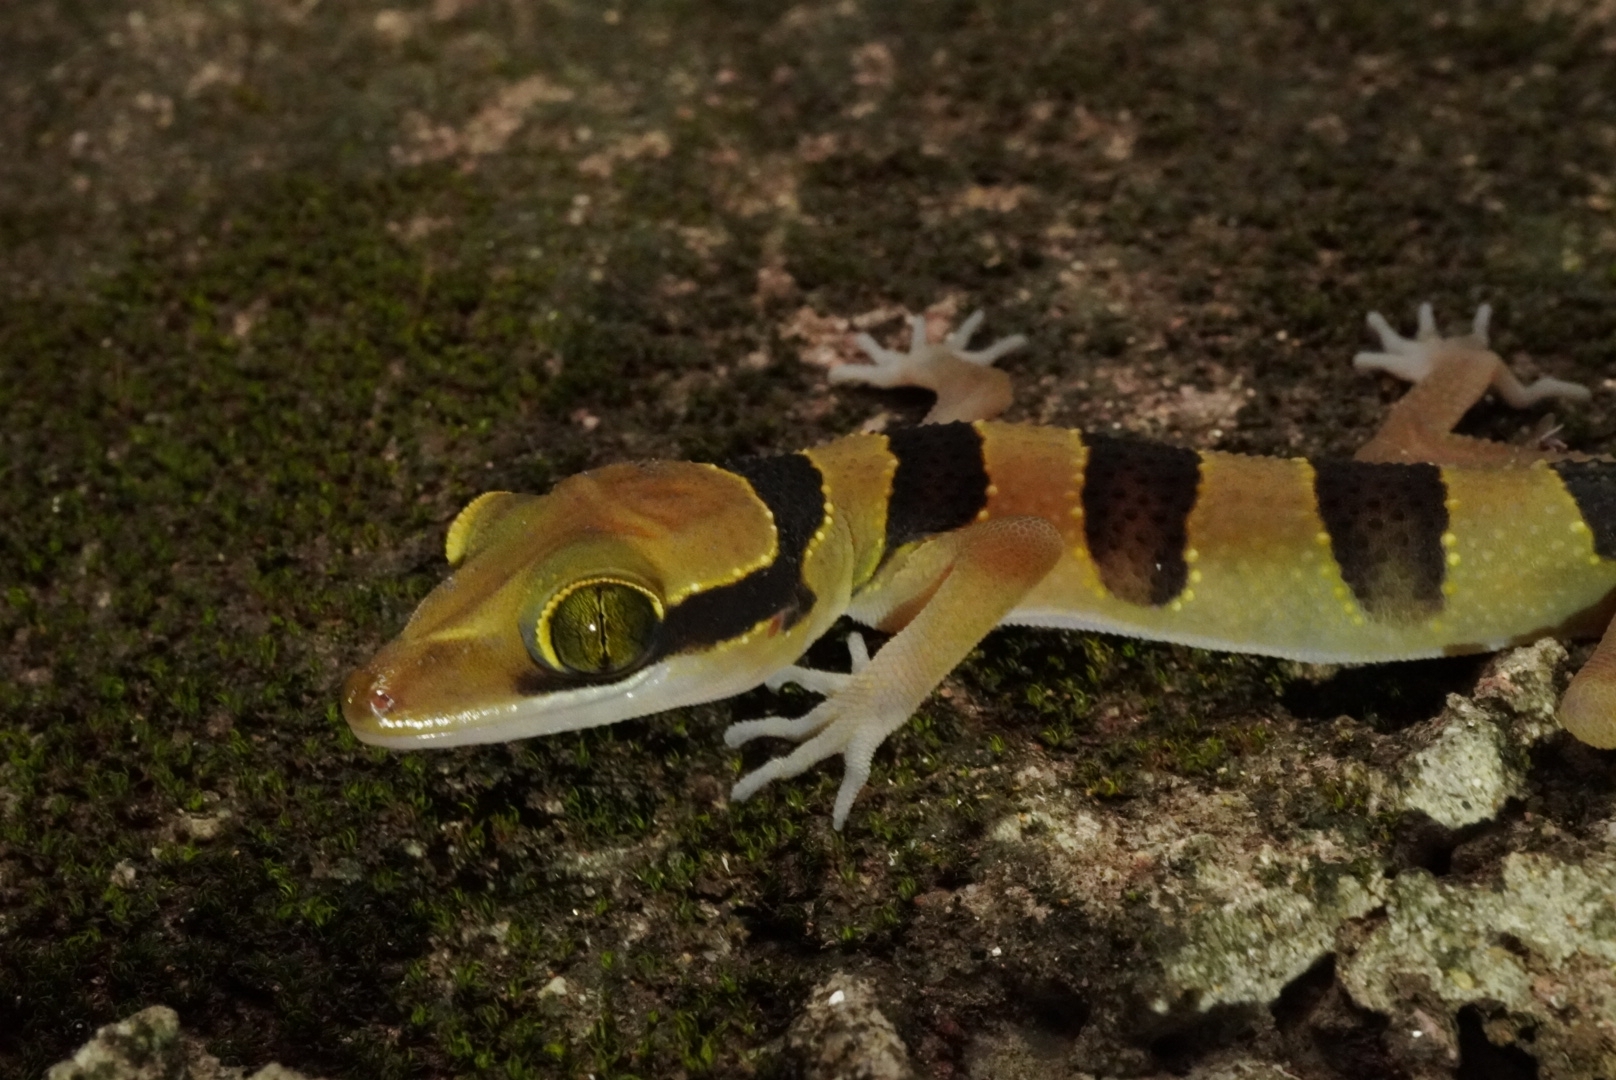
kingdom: Animalia
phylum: Chordata
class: Squamata
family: Gekkonidae
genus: Cyrtodactylus
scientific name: Cyrtodactylus lekaguli
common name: Tuk-kai boonsong bent-toed gecko
